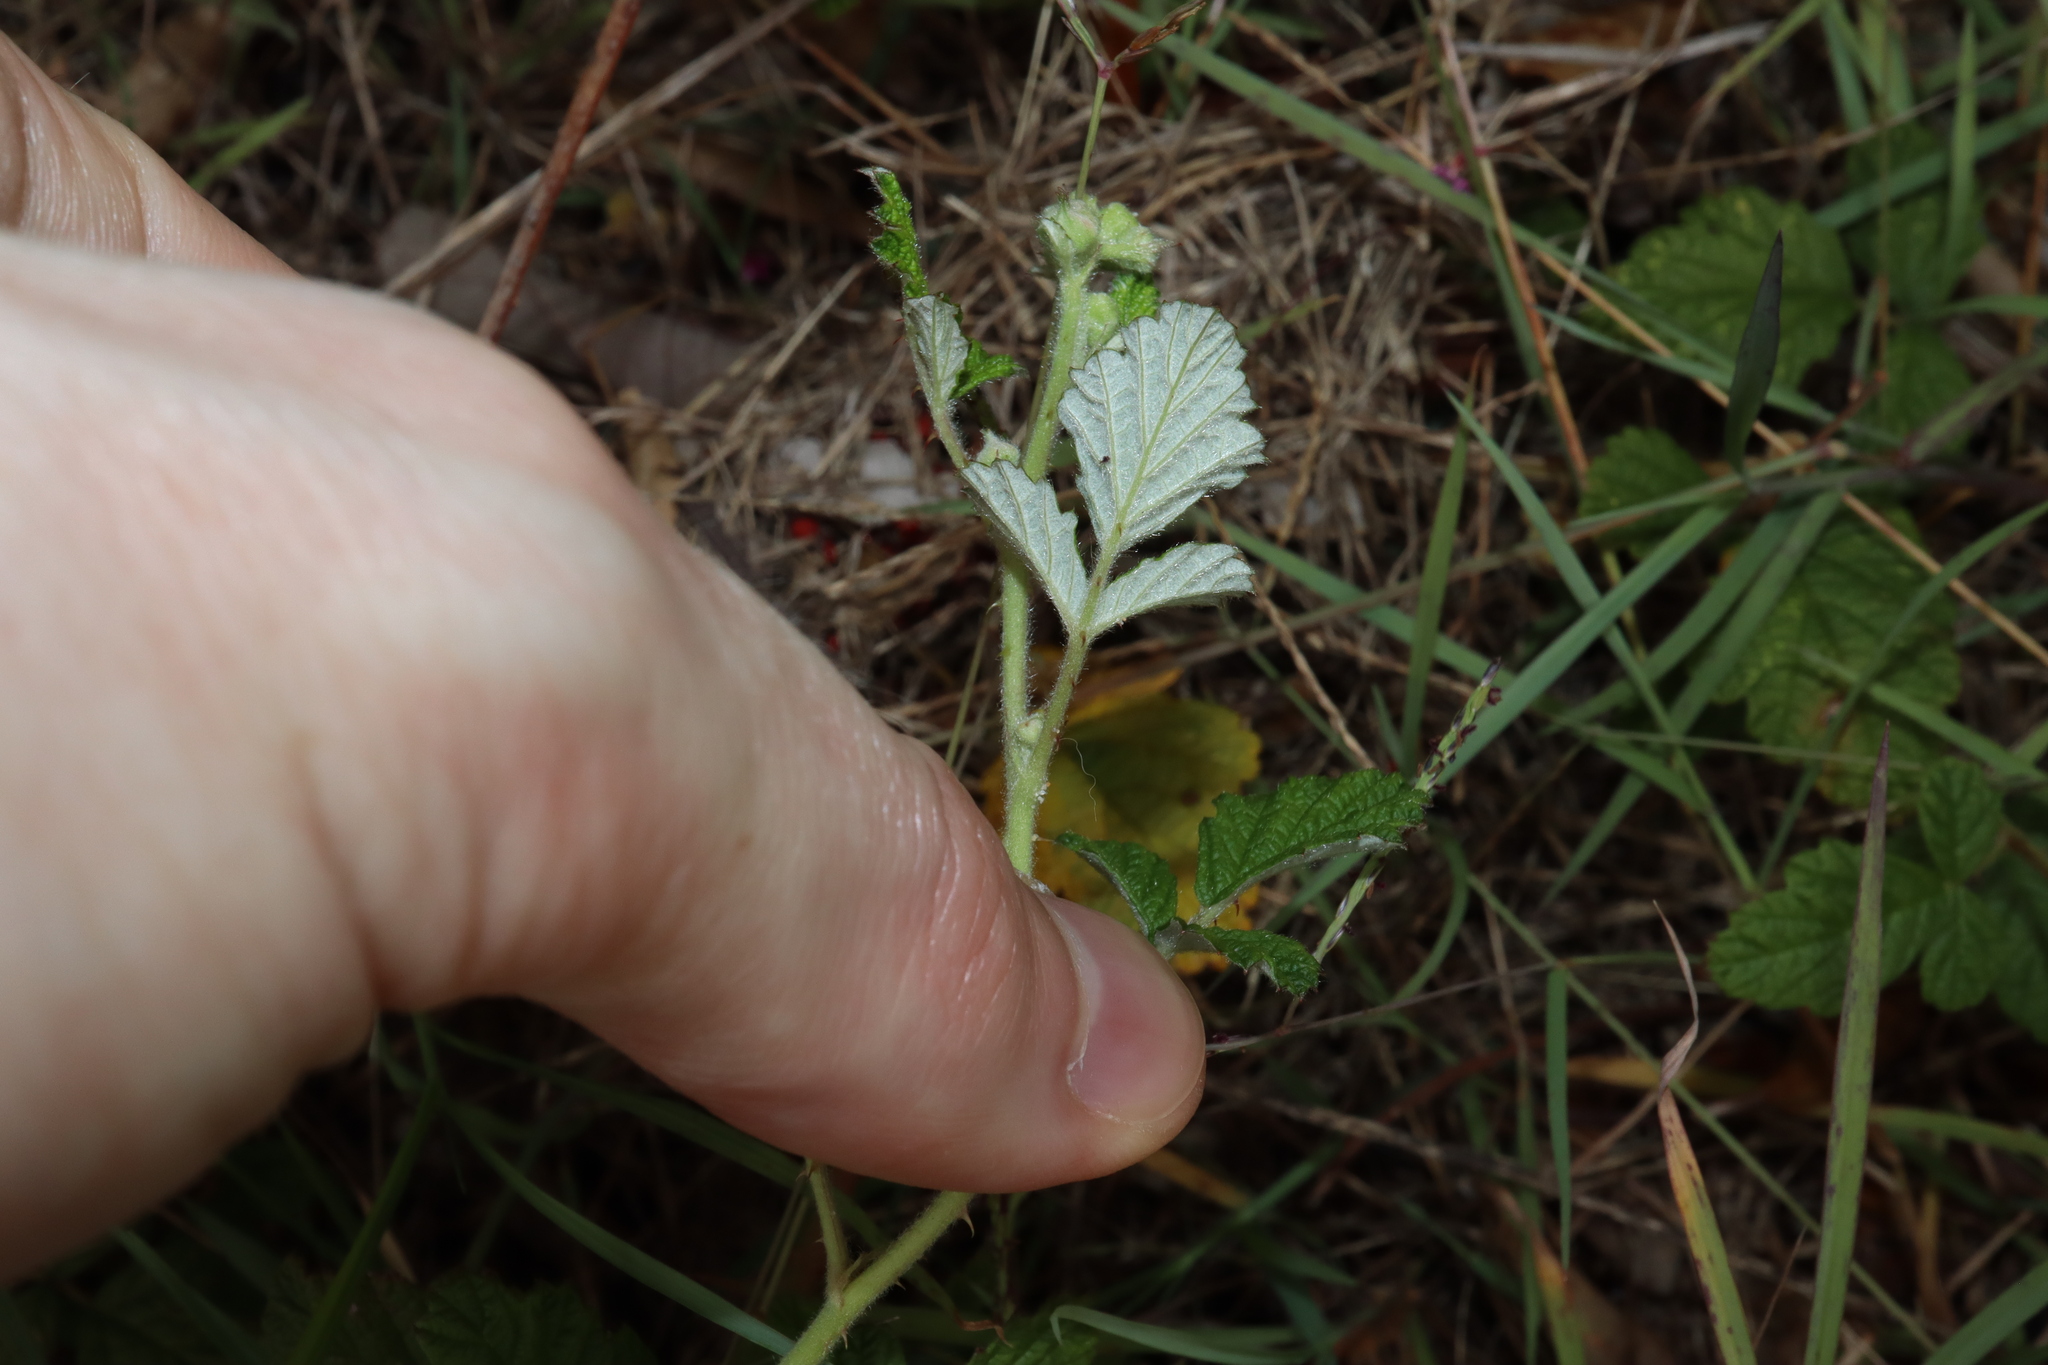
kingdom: Plantae
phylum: Tracheophyta
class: Magnoliopsida
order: Rosales
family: Rosaceae
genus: Rubus
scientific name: Rubus parvifolius
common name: Threeleaf blackberry
